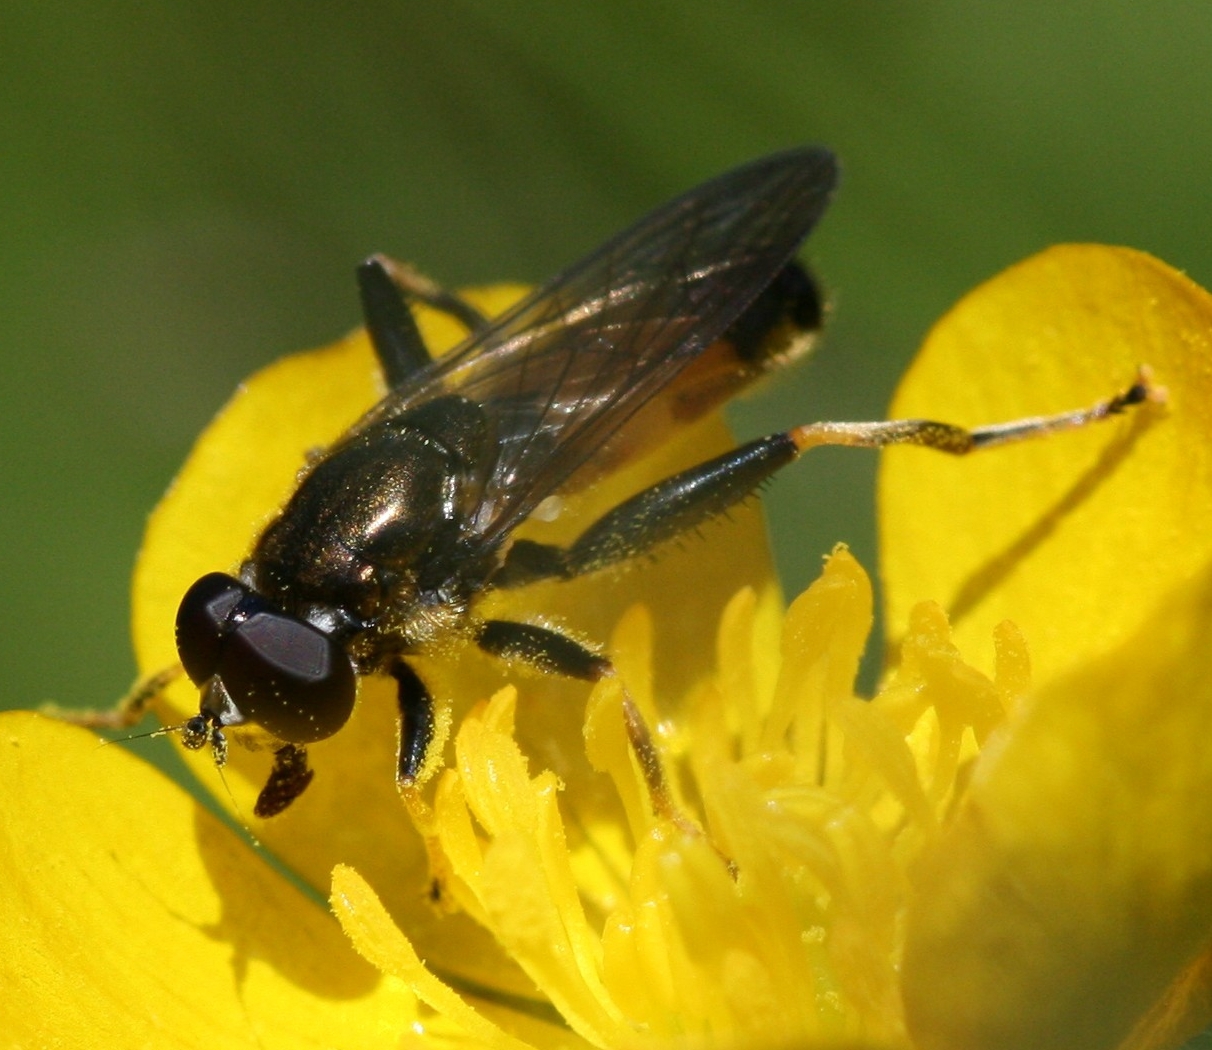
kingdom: Animalia
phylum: Arthropoda
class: Insecta
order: Diptera
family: Syrphidae
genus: Xylota
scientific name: Xylota segnis
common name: Brown-toed forest fly
